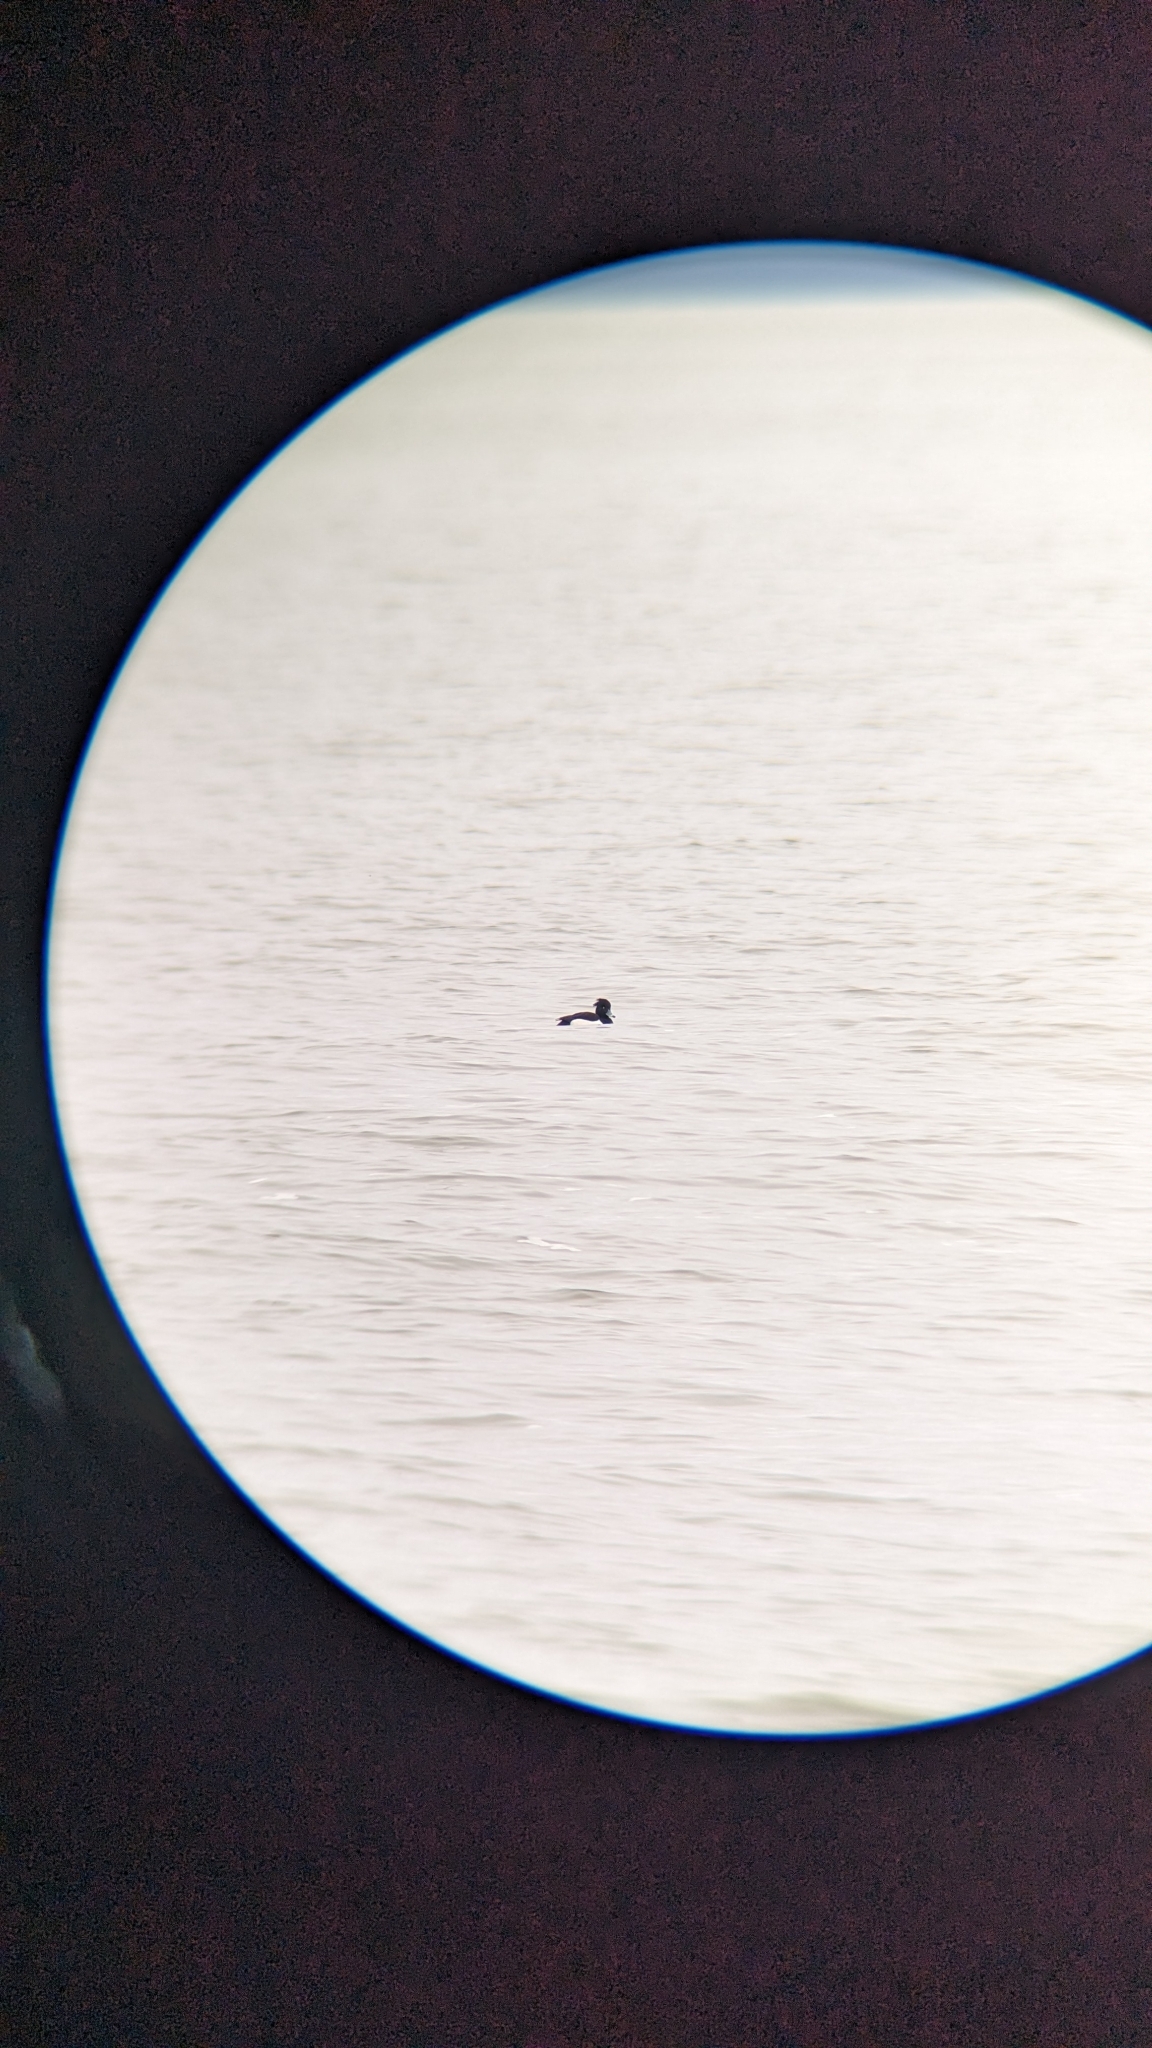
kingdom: Animalia
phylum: Chordata
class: Aves
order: Anseriformes
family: Anatidae
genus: Aythya
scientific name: Aythya fuligula
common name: Tufted duck
